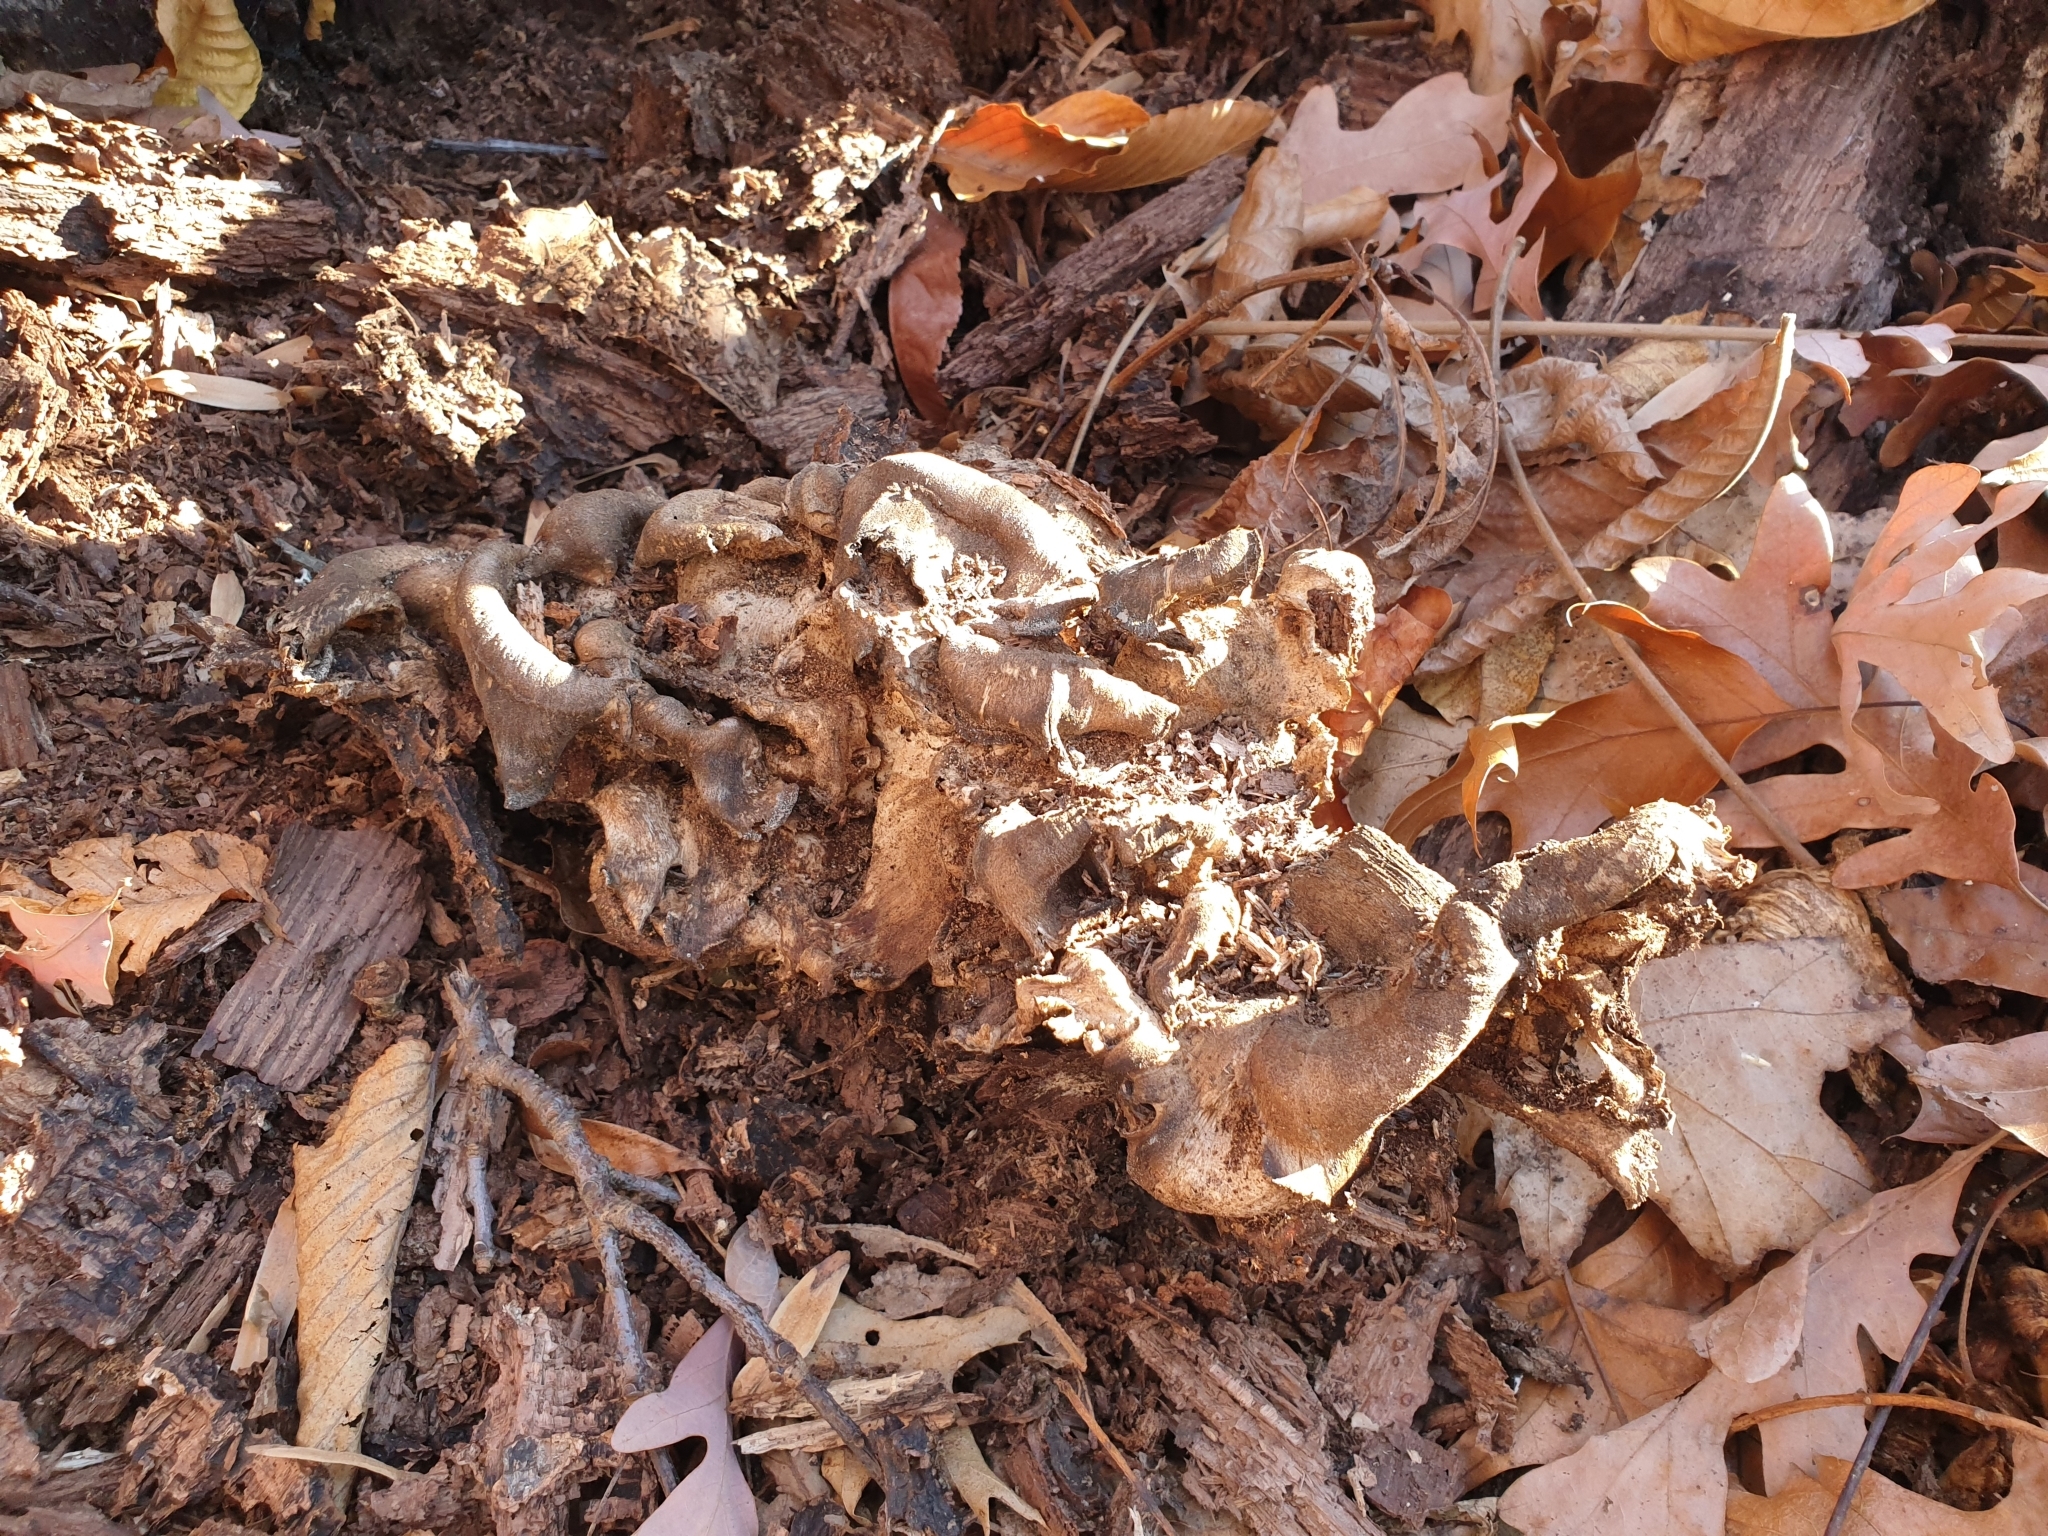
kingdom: Fungi
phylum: Basidiomycota
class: Agaricomycetes
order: Polyporales
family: Grifolaceae
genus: Grifola
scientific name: Grifola frondosa
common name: Hen of the woods
